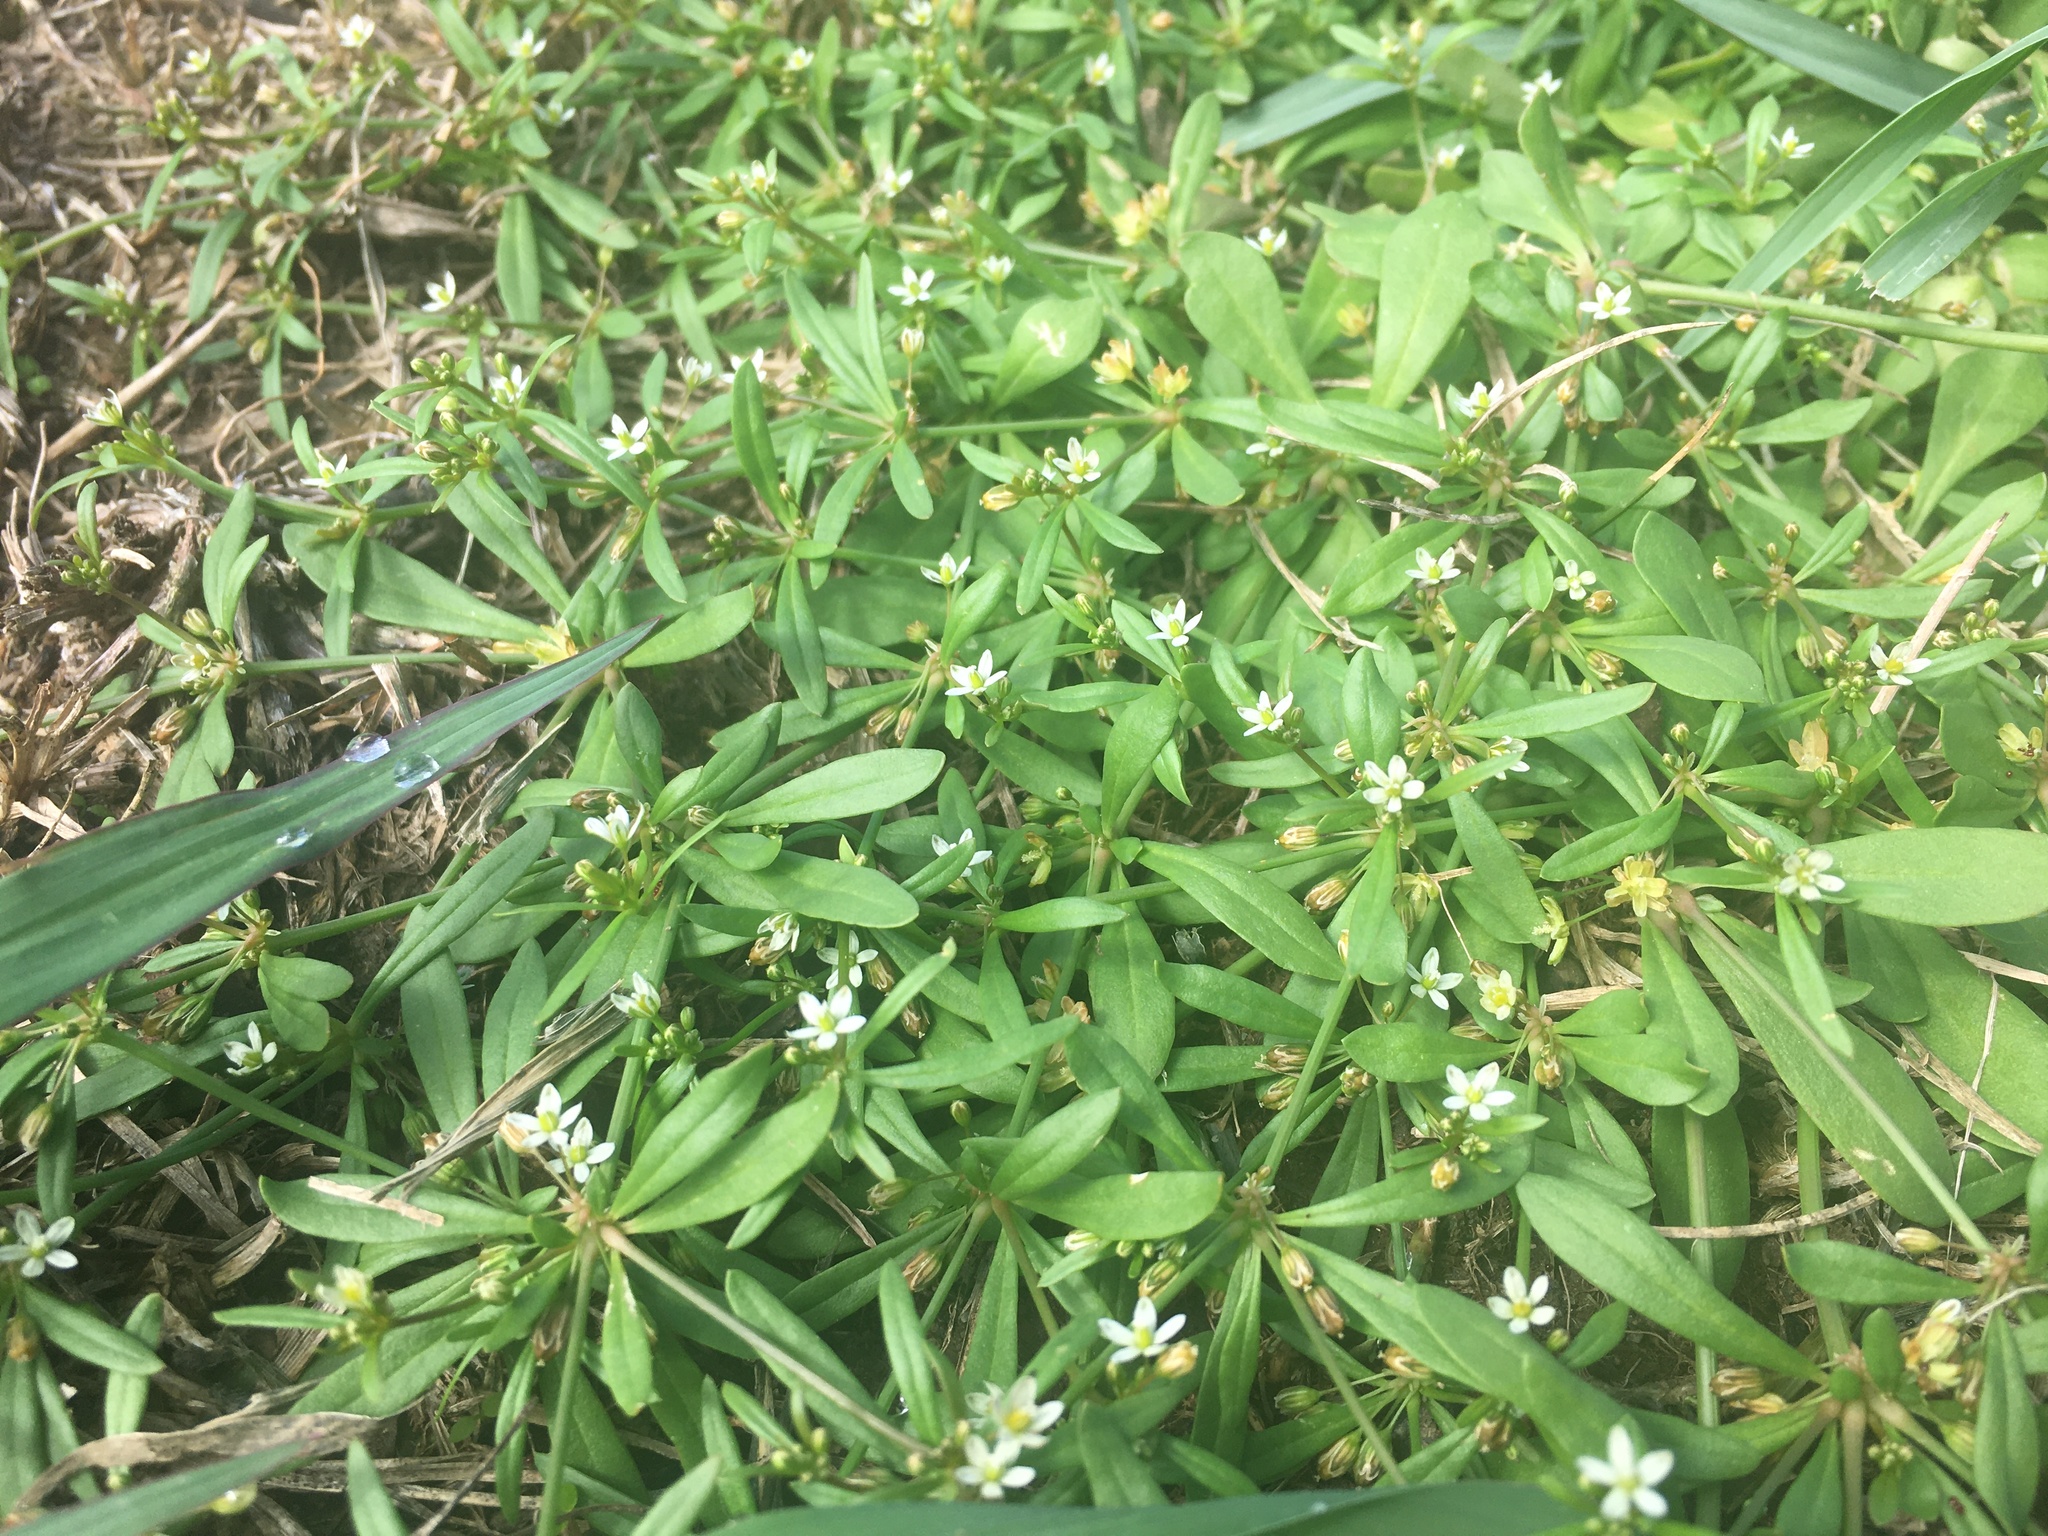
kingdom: Plantae
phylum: Tracheophyta
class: Magnoliopsida
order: Caryophyllales
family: Molluginaceae
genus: Mollugo
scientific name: Mollugo verticillata
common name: Green carpetweed
